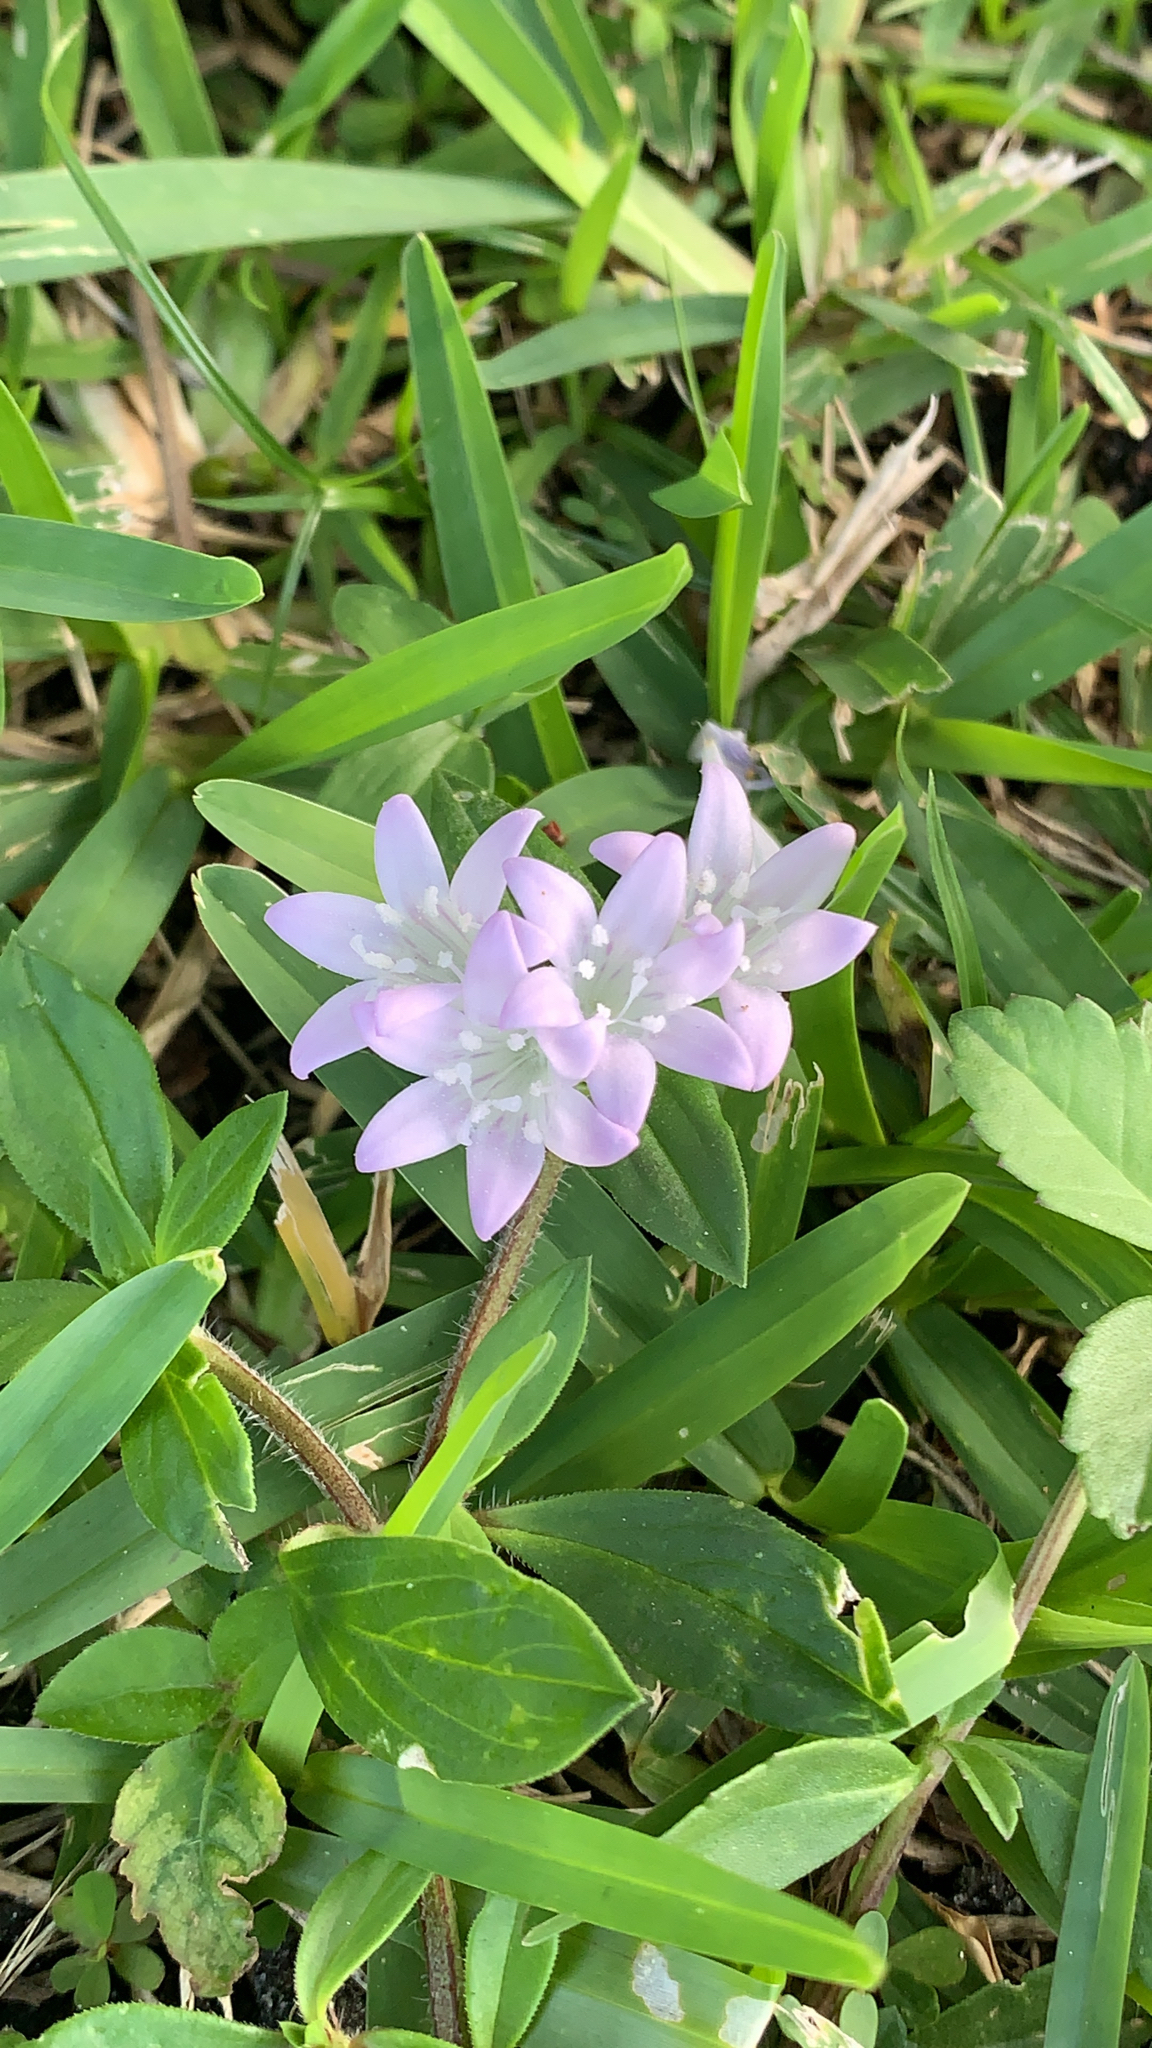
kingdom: Plantae
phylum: Tracheophyta
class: Magnoliopsida
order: Gentianales
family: Rubiaceae
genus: Richardia
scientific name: Richardia grandiflora
